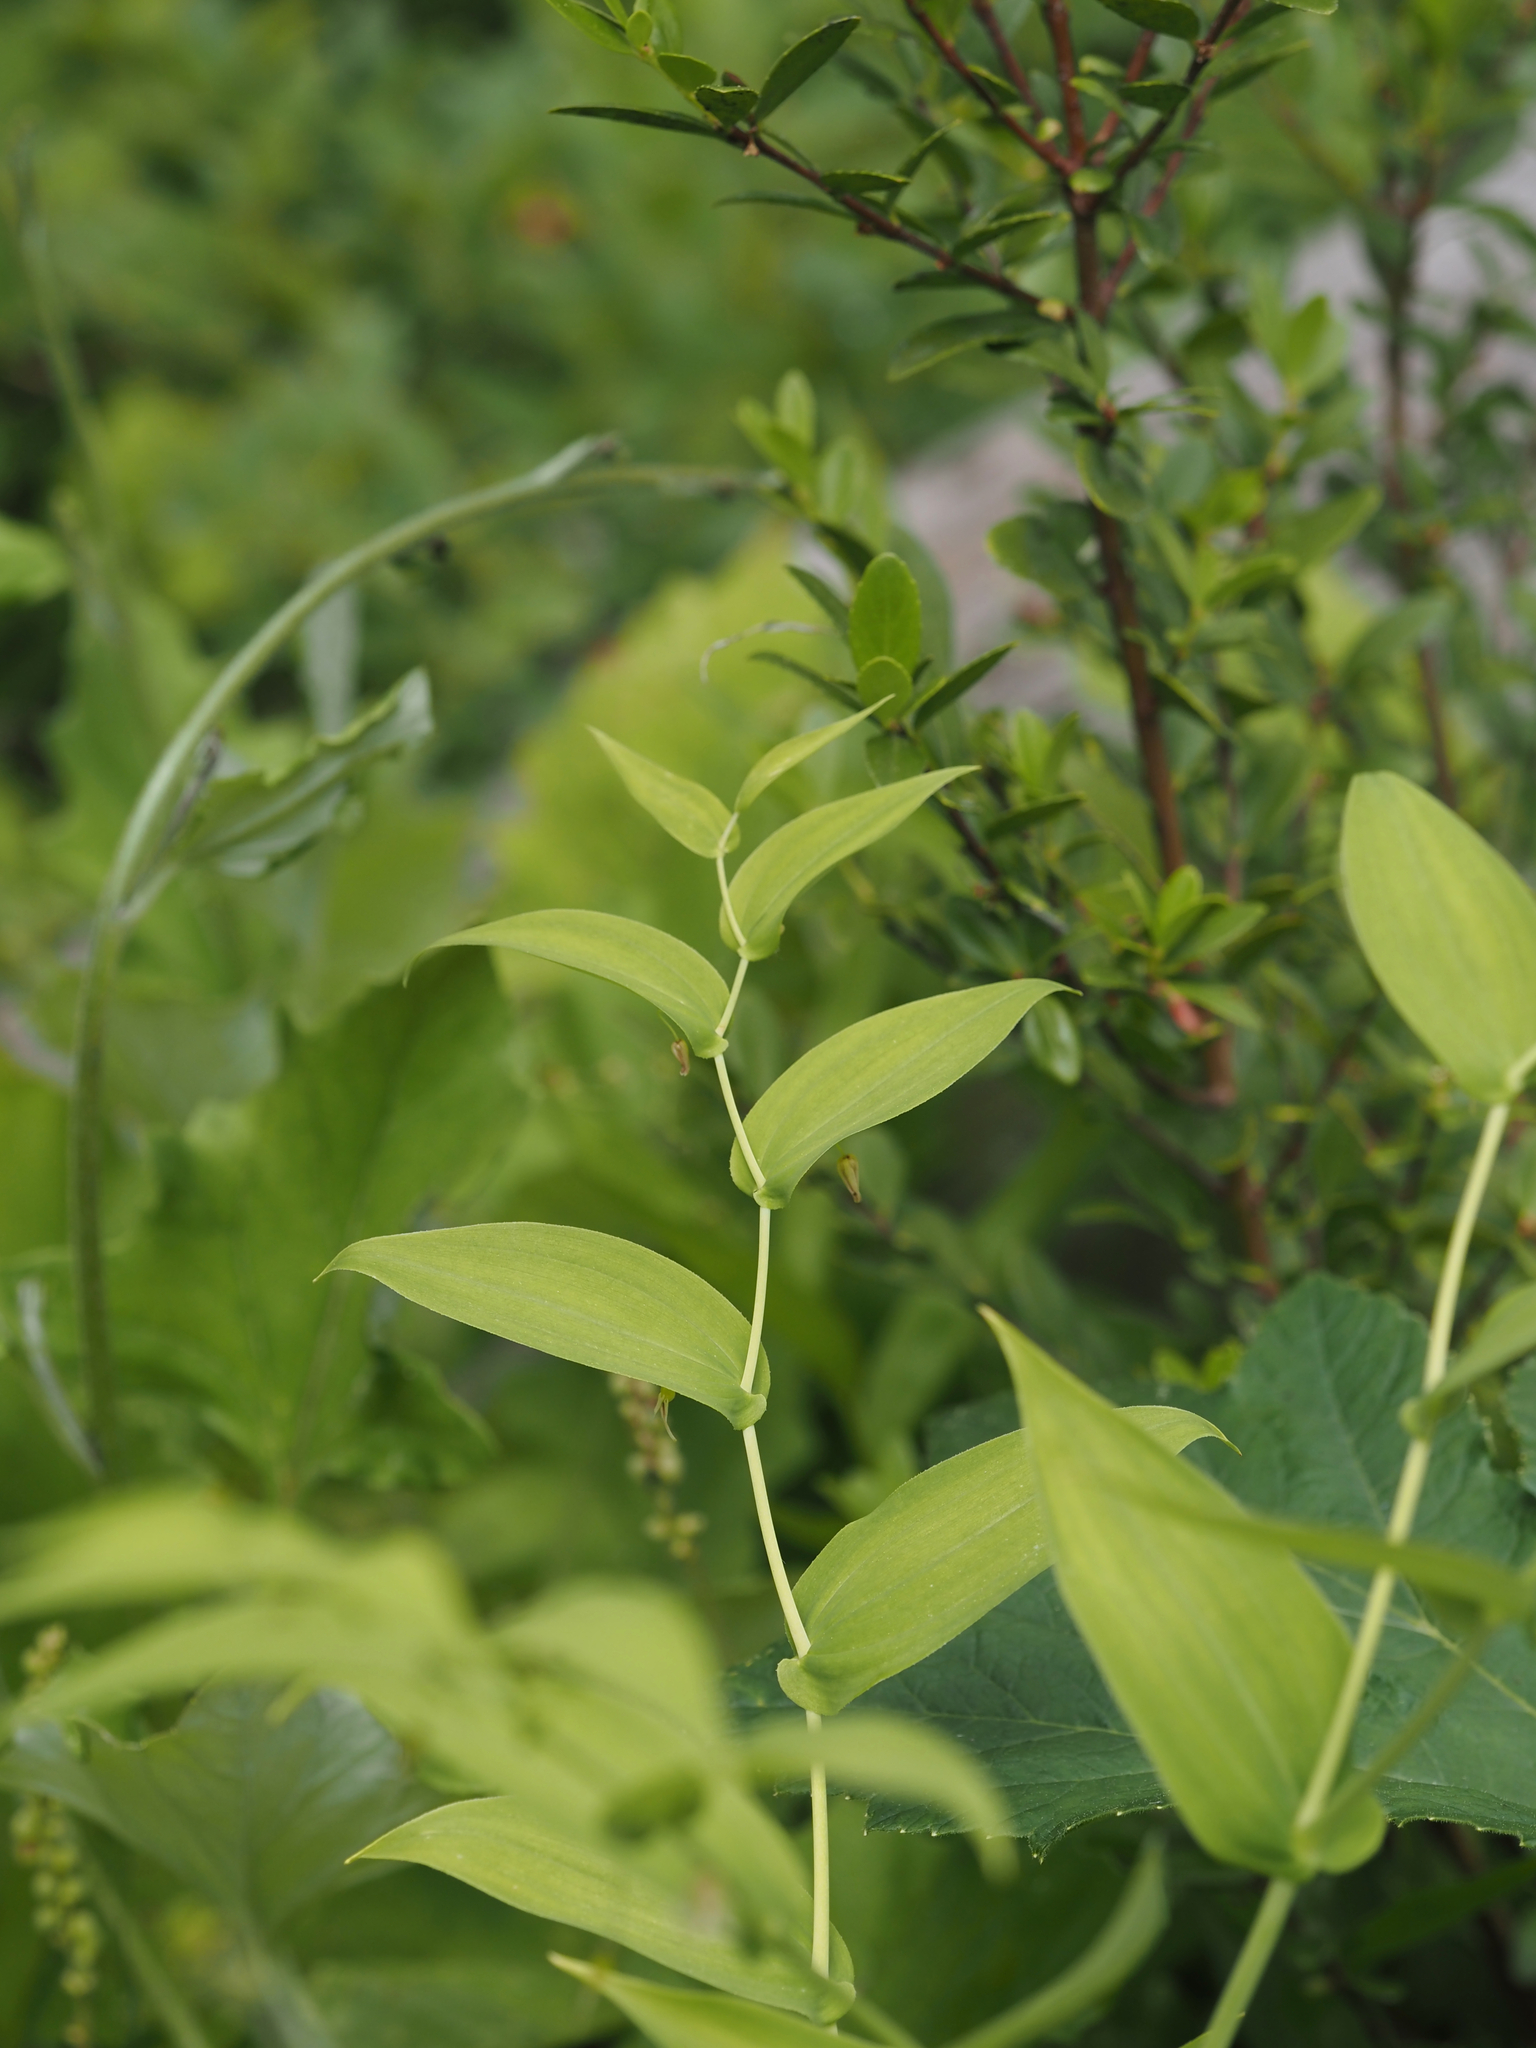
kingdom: Plantae
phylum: Tracheophyta
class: Liliopsida
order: Liliales
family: Liliaceae
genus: Streptopus
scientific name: Streptopus amplexifolius
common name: Clasp twisted stalk
